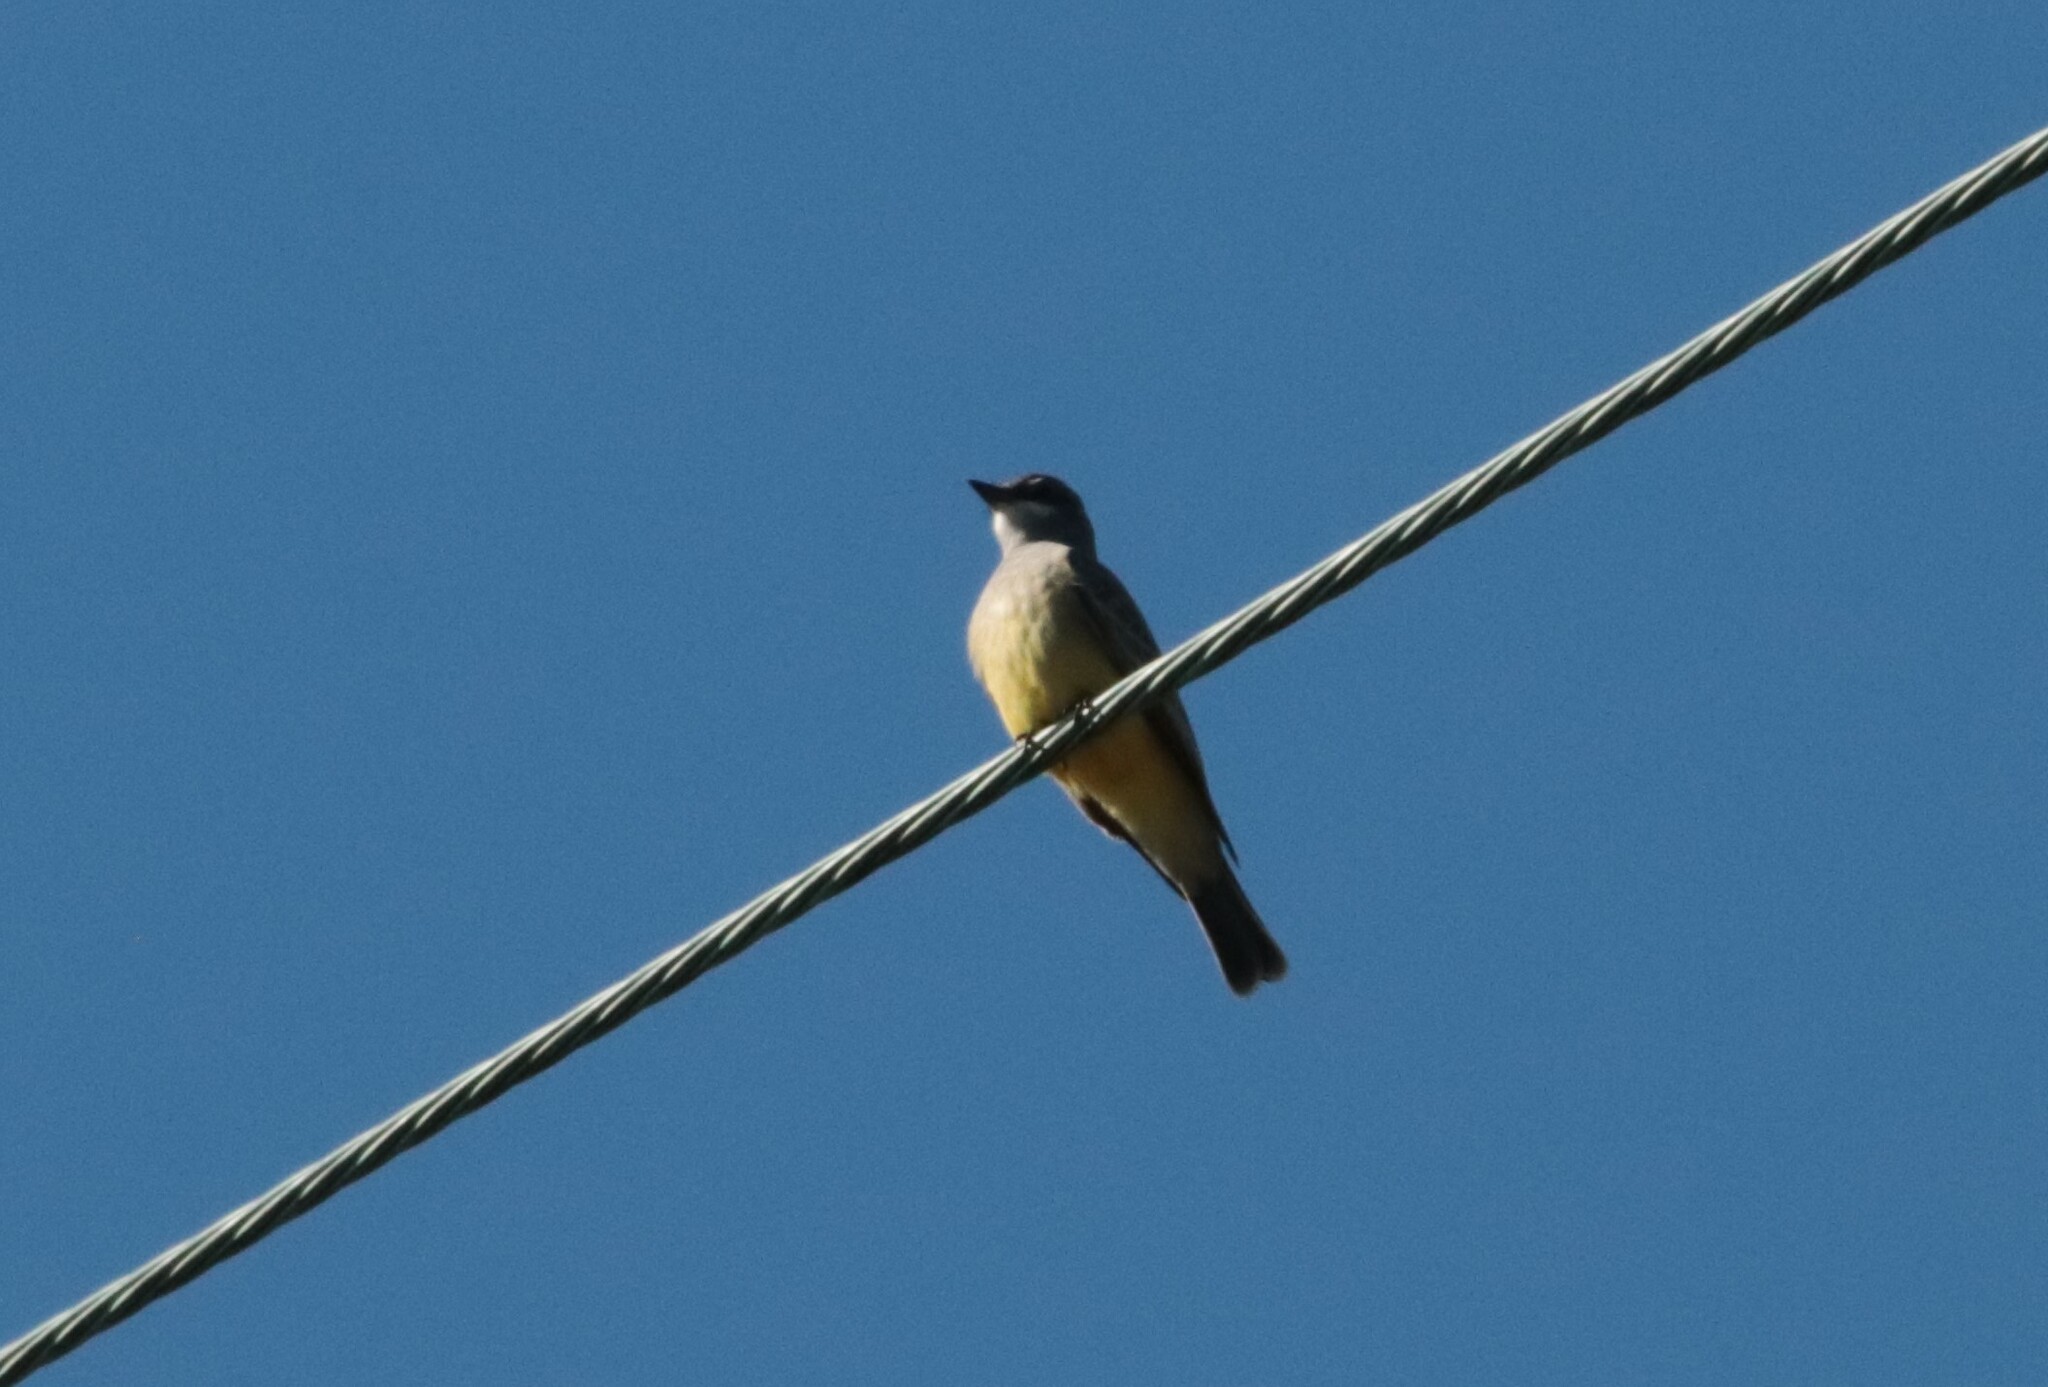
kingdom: Animalia
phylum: Chordata
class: Aves
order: Passeriformes
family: Tyrannidae
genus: Tyrannus
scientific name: Tyrannus vociferans
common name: Cassin's kingbird
